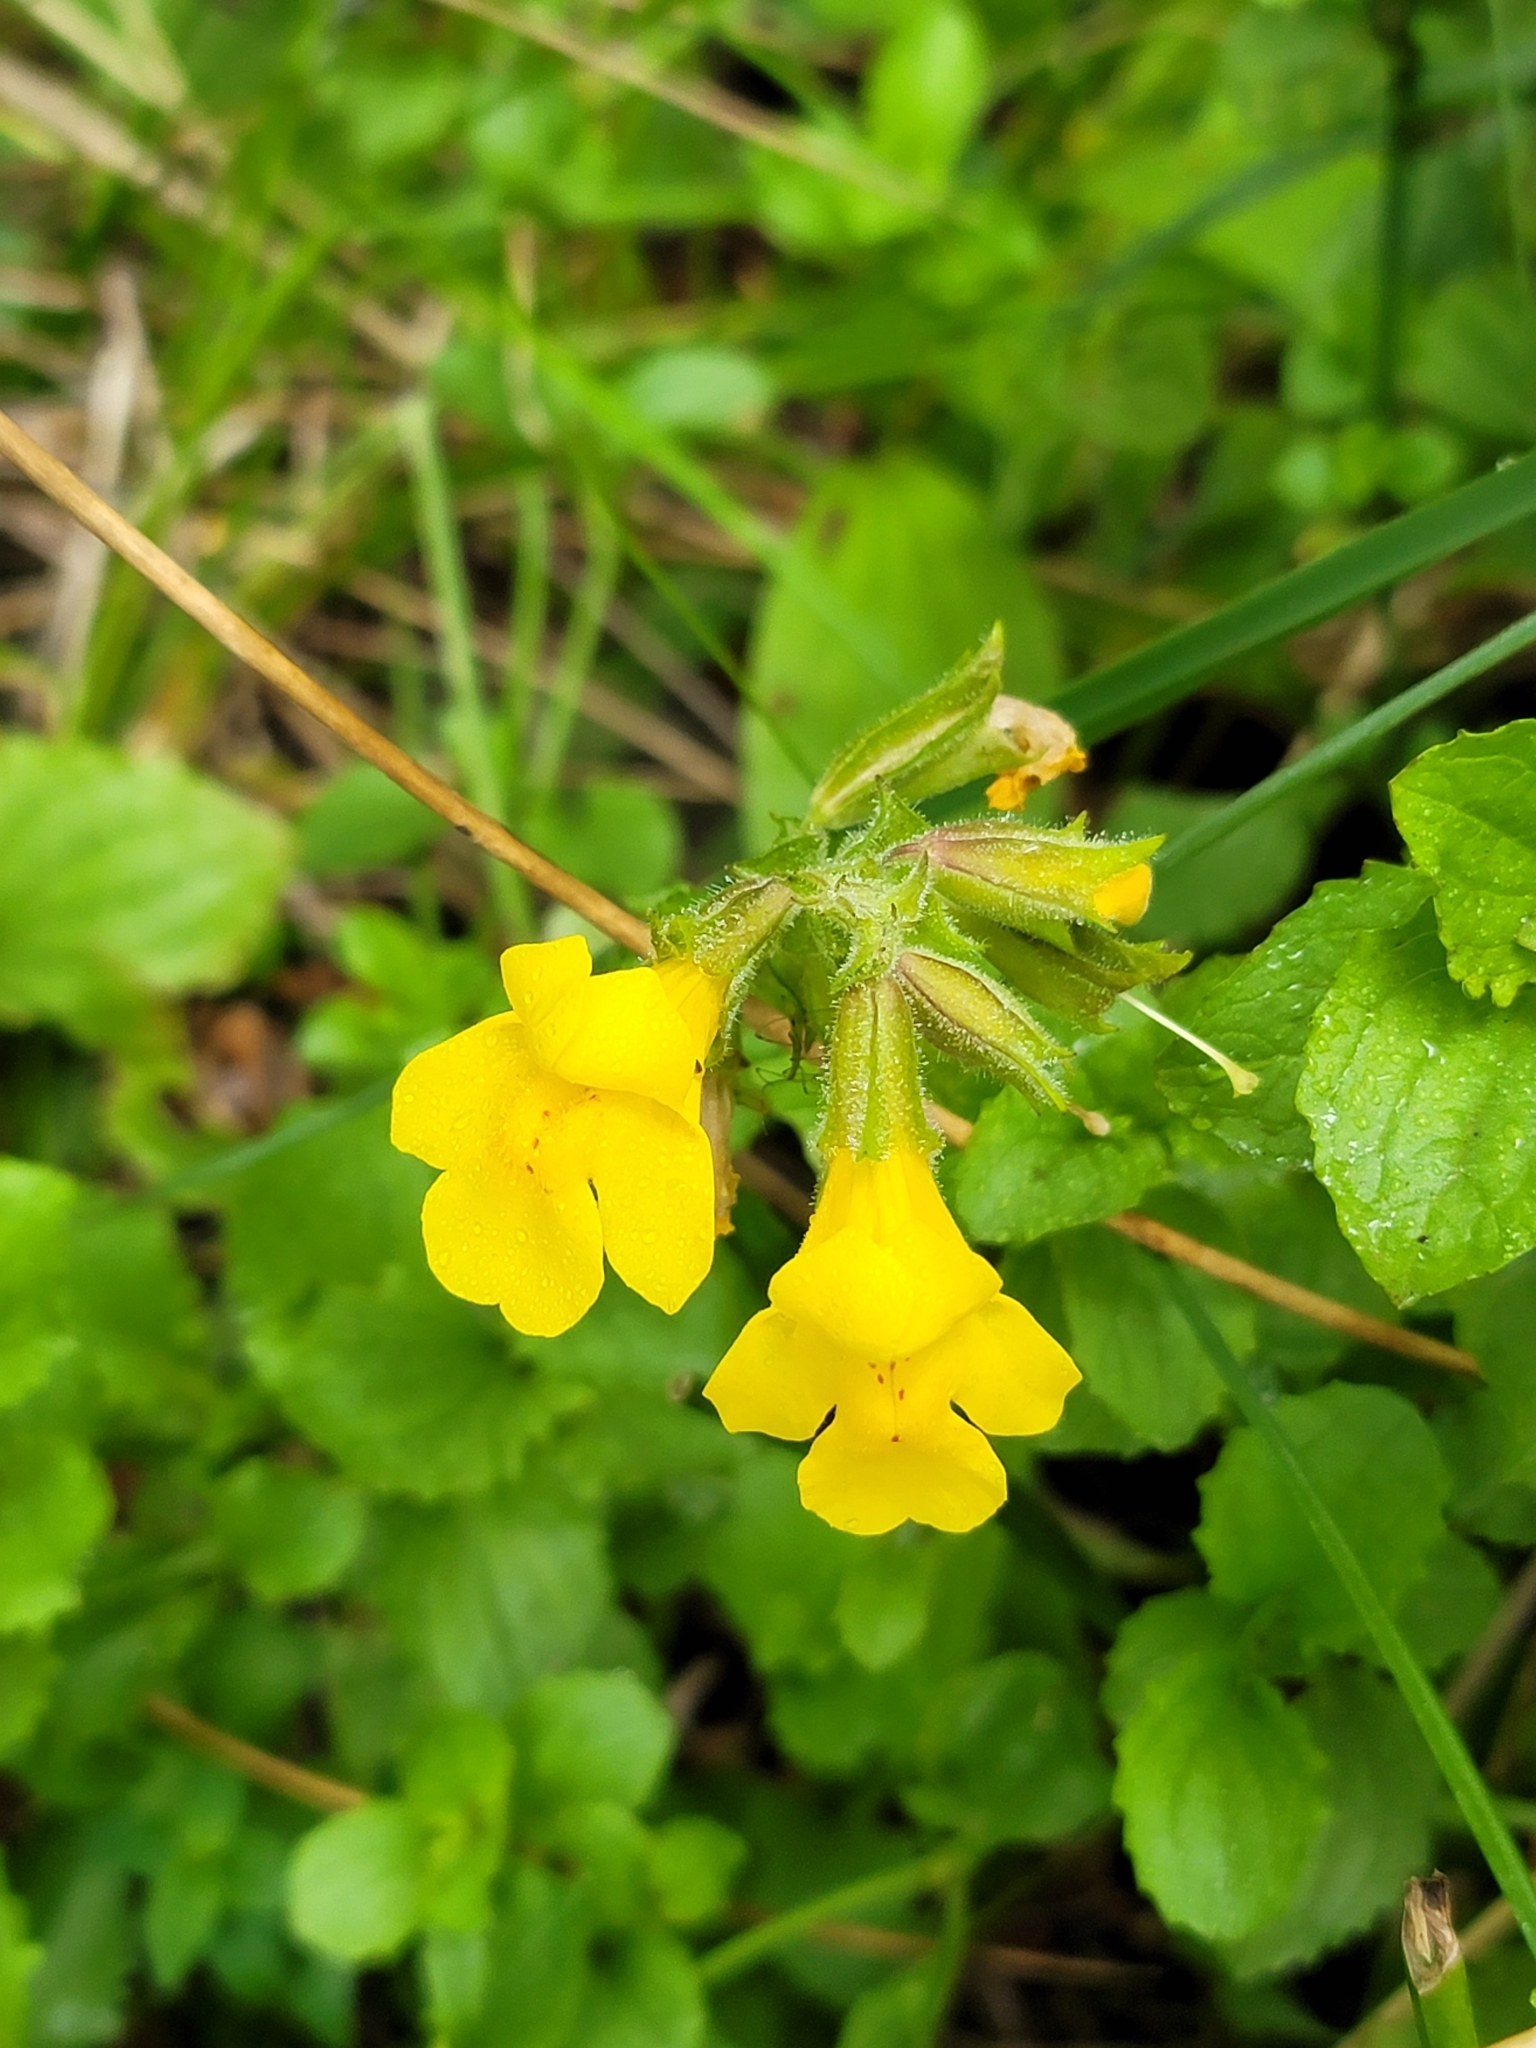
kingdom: Plantae
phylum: Tracheophyta
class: Magnoliopsida
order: Lamiales
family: Phrymaceae
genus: Erythranthe
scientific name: Erythranthe guttata
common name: Monkeyflower
